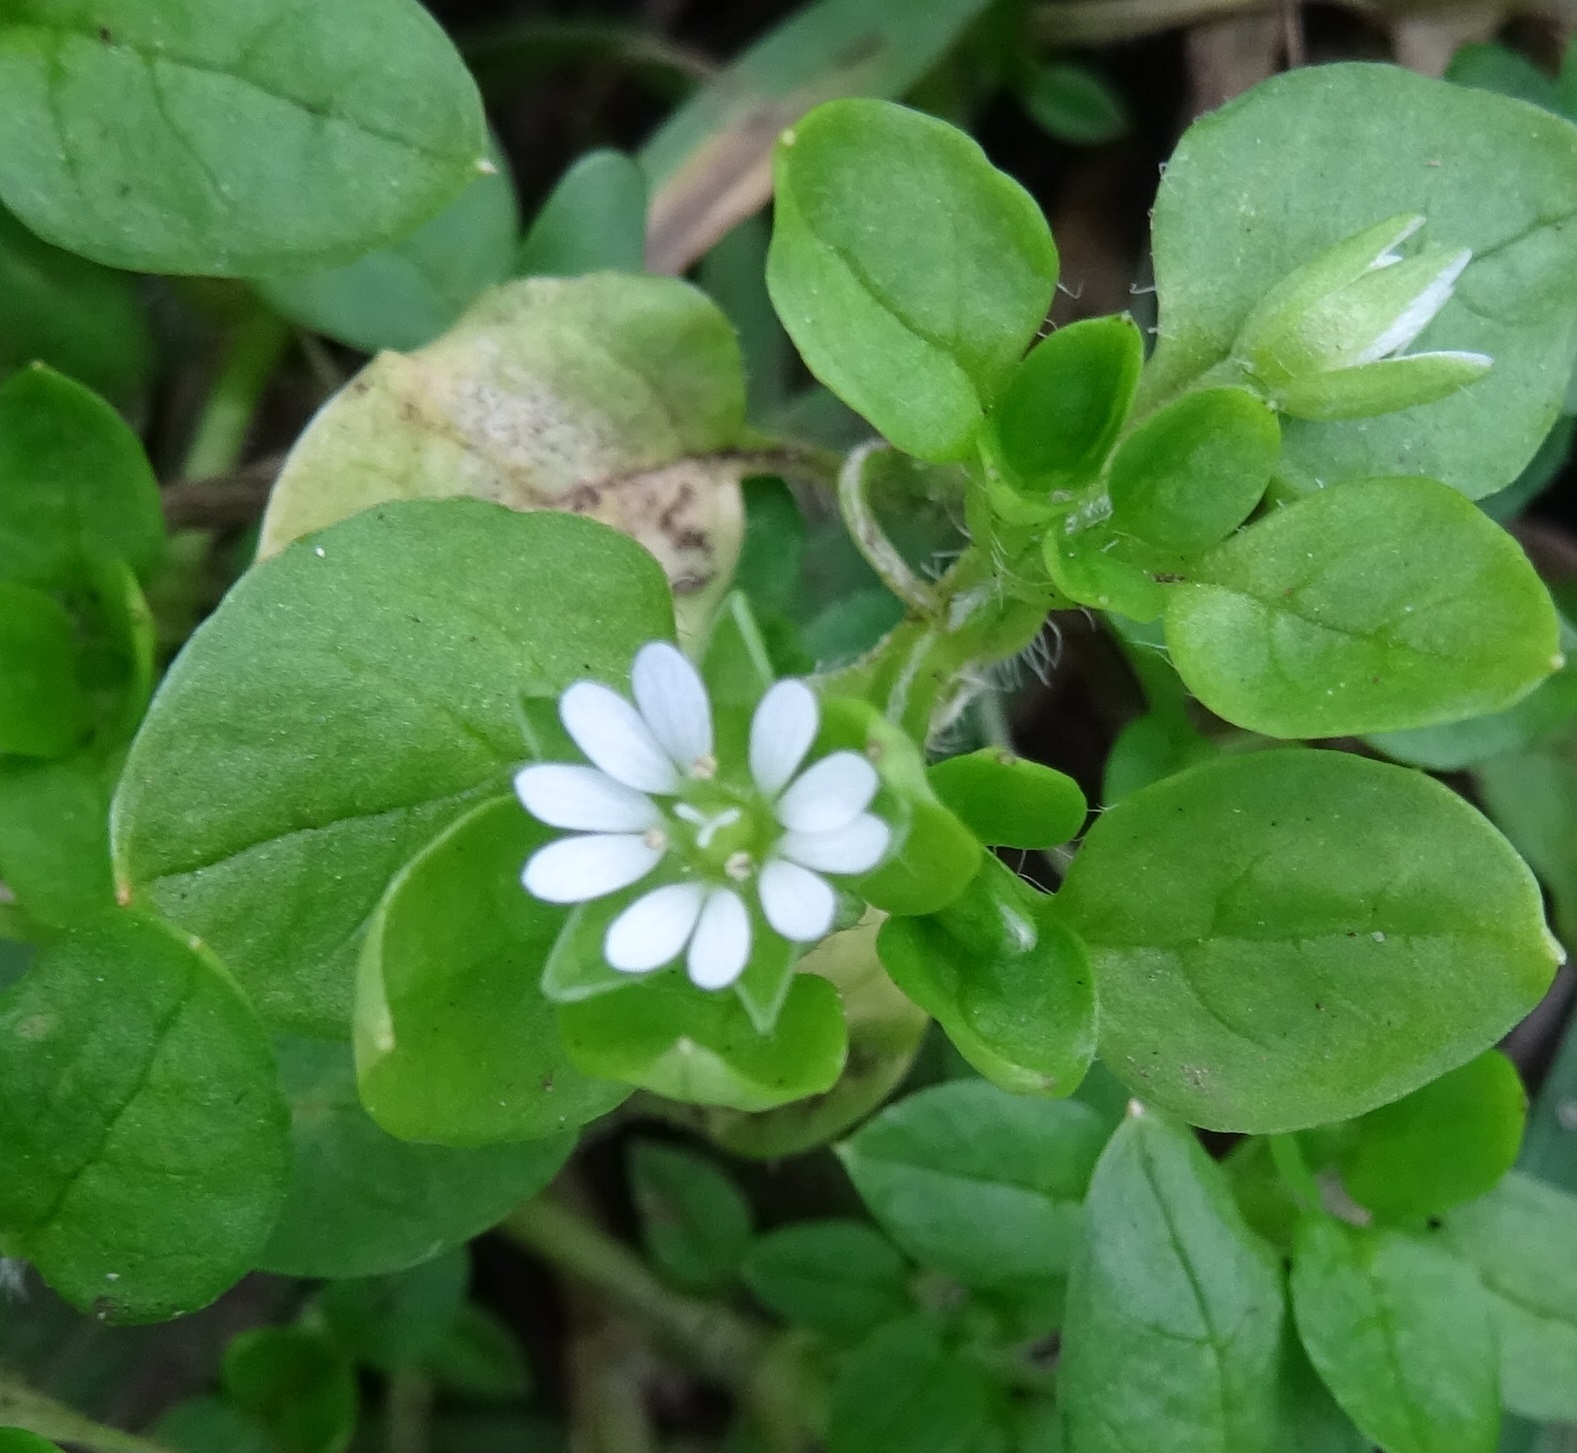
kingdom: Plantae
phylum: Tracheophyta
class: Magnoliopsida
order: Caryophyllales
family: Caryophyllaceae
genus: Stellaria
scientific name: Stellaria media
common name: Common chickweed
